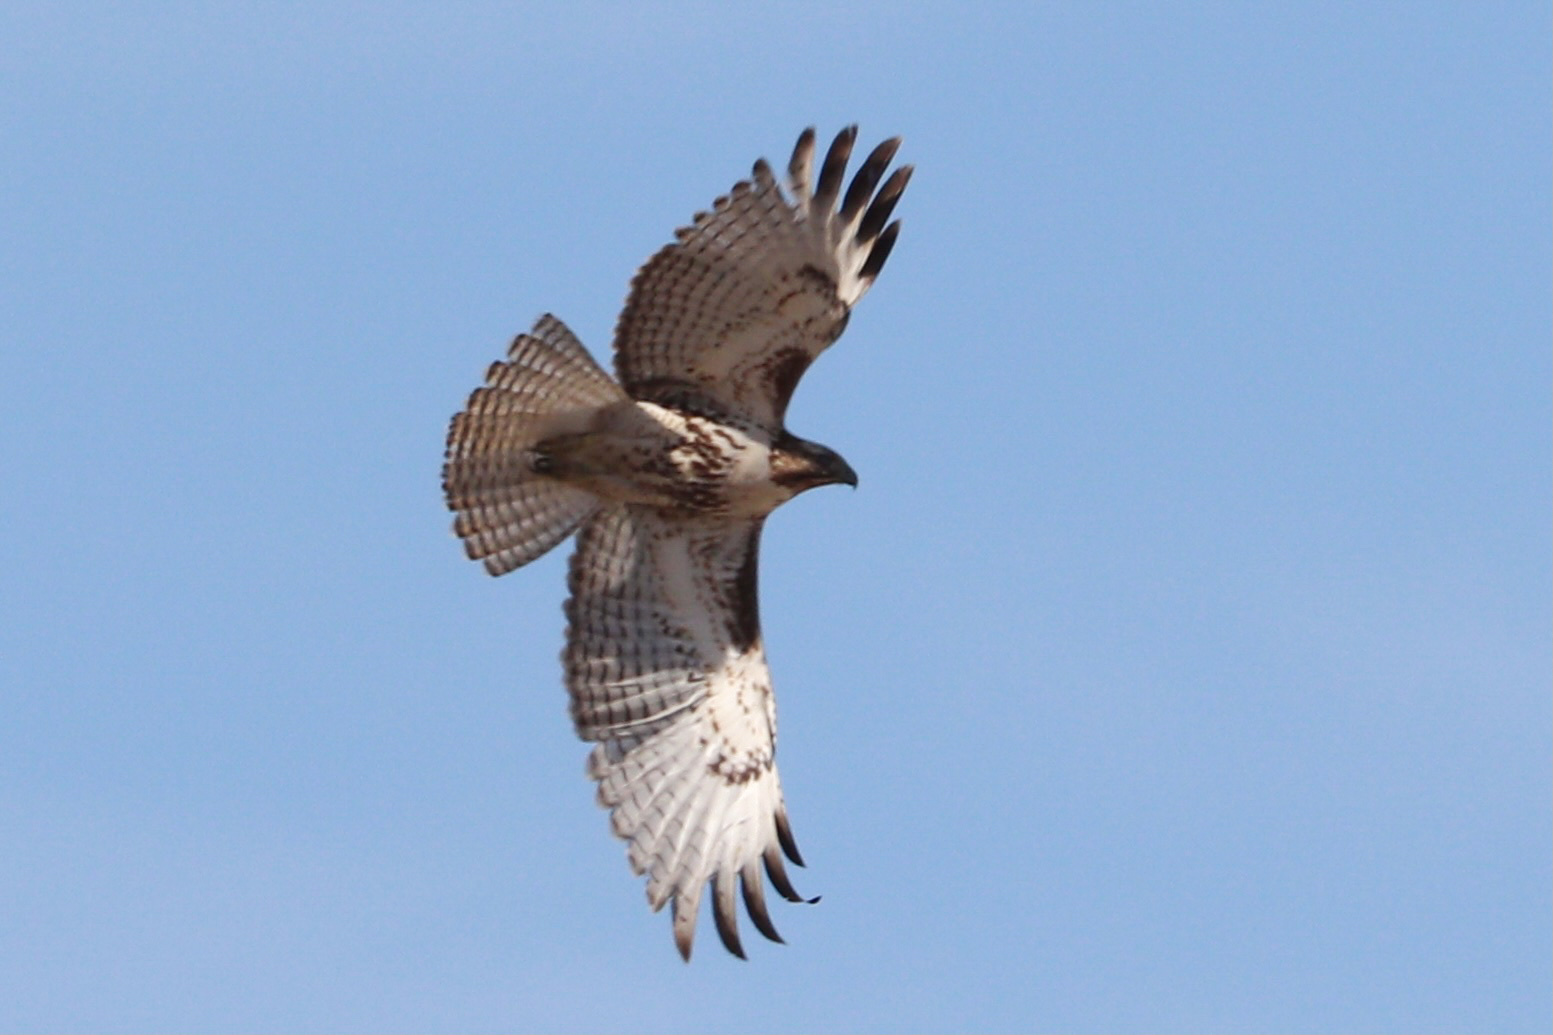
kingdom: Animalia
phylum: Chordata
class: Aves
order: Accipitriformes
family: Accipitridae
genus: Buteo
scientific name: Buteo jamaicensis
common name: Red-tailed hawk
